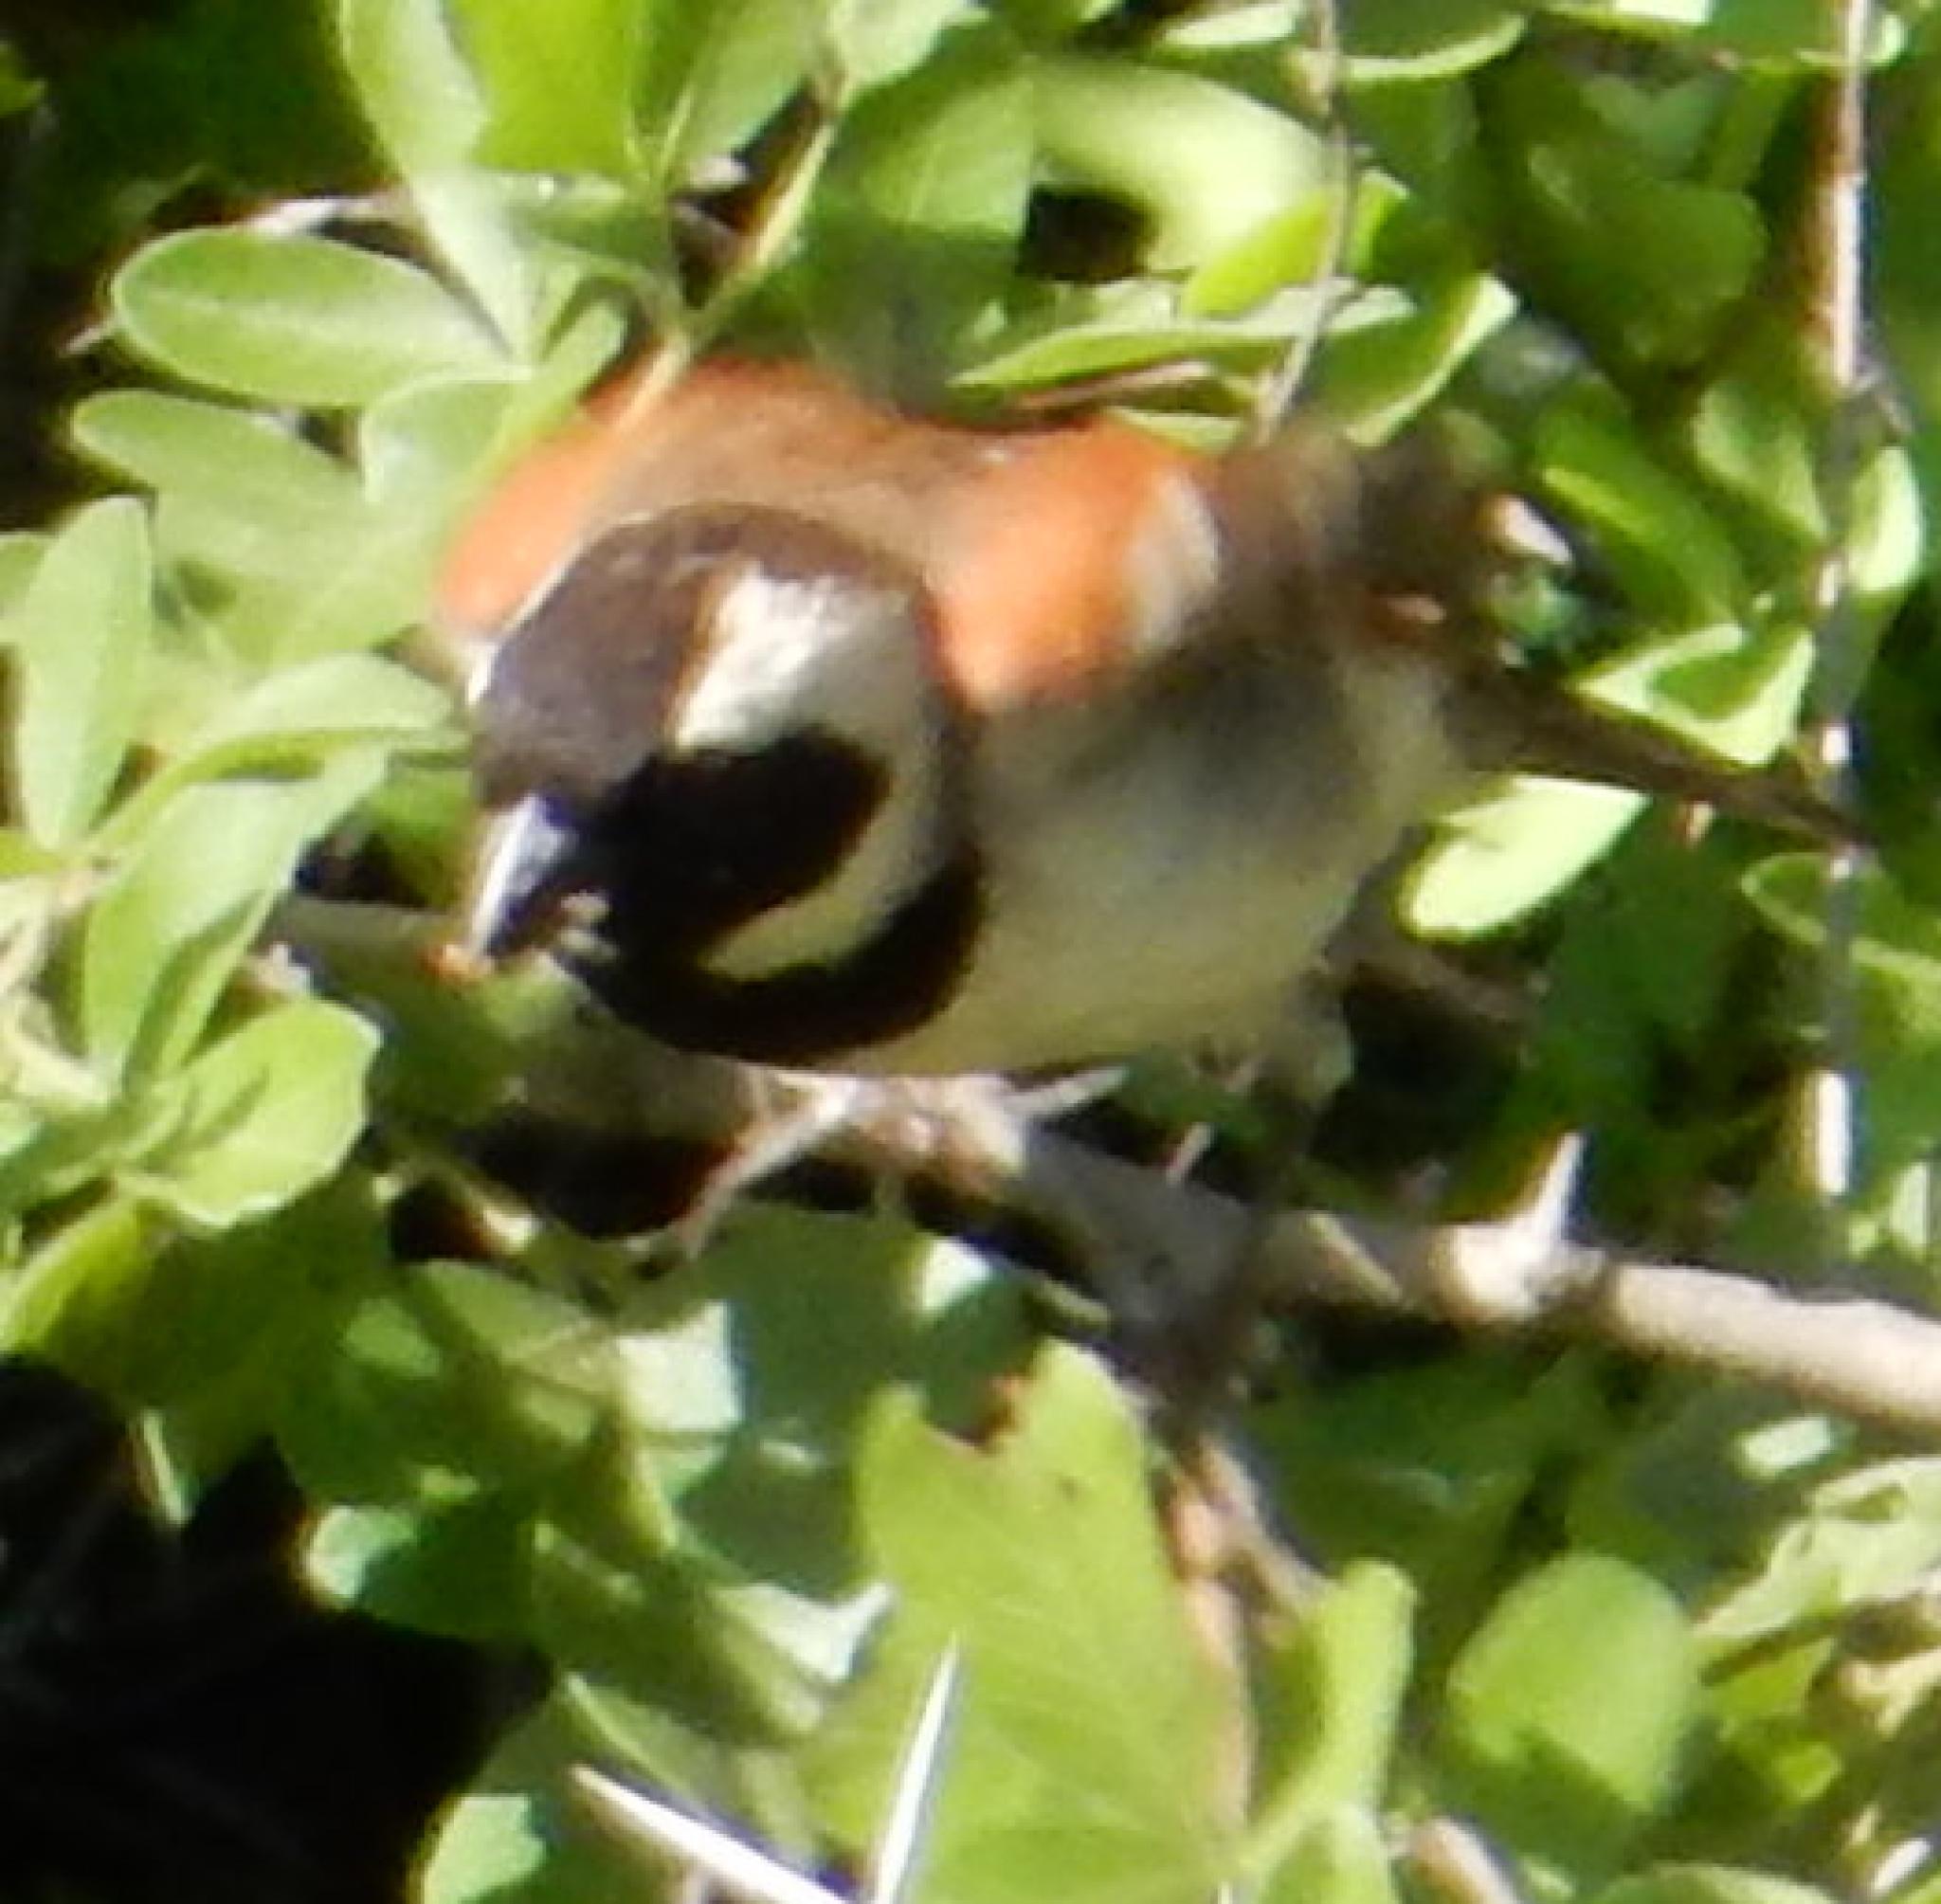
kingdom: Animalia
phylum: Chordata
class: Aves
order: Passeriformes
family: Passeridae
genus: Passer
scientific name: Passer melanurus
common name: Cape sparrow
